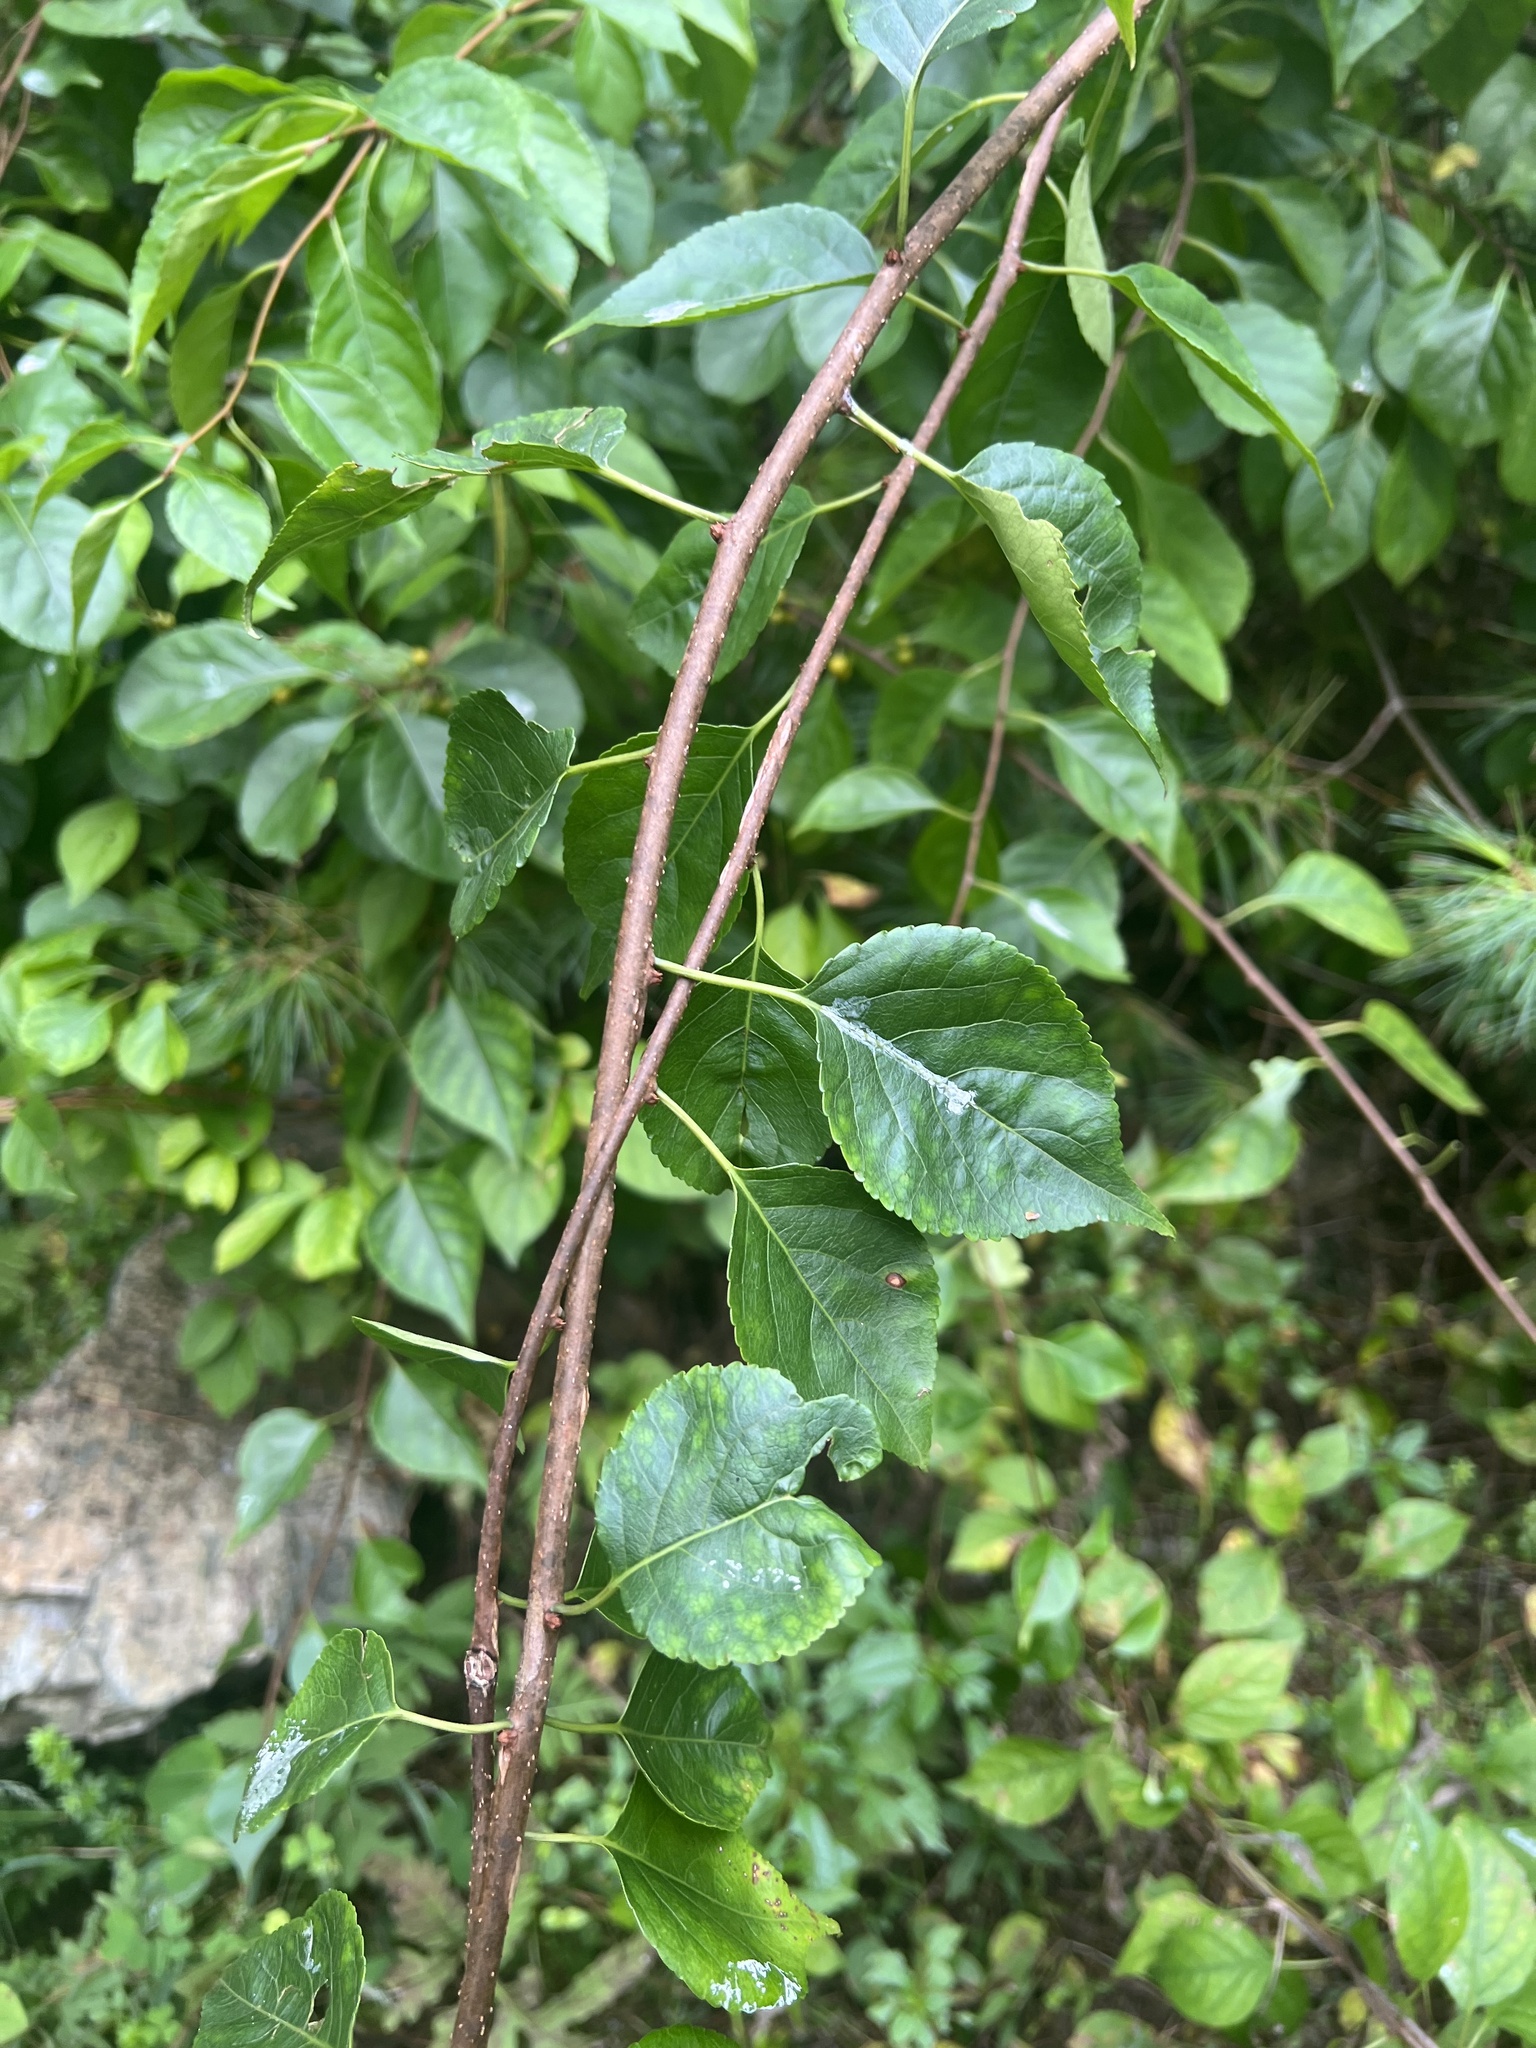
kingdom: Plantae
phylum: Tracheophyta
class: Magnoliopsida
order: Celastrales
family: Celastraceae
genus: Celastrus
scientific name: Celastrus orbiculatus
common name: Oriental bittersweet
